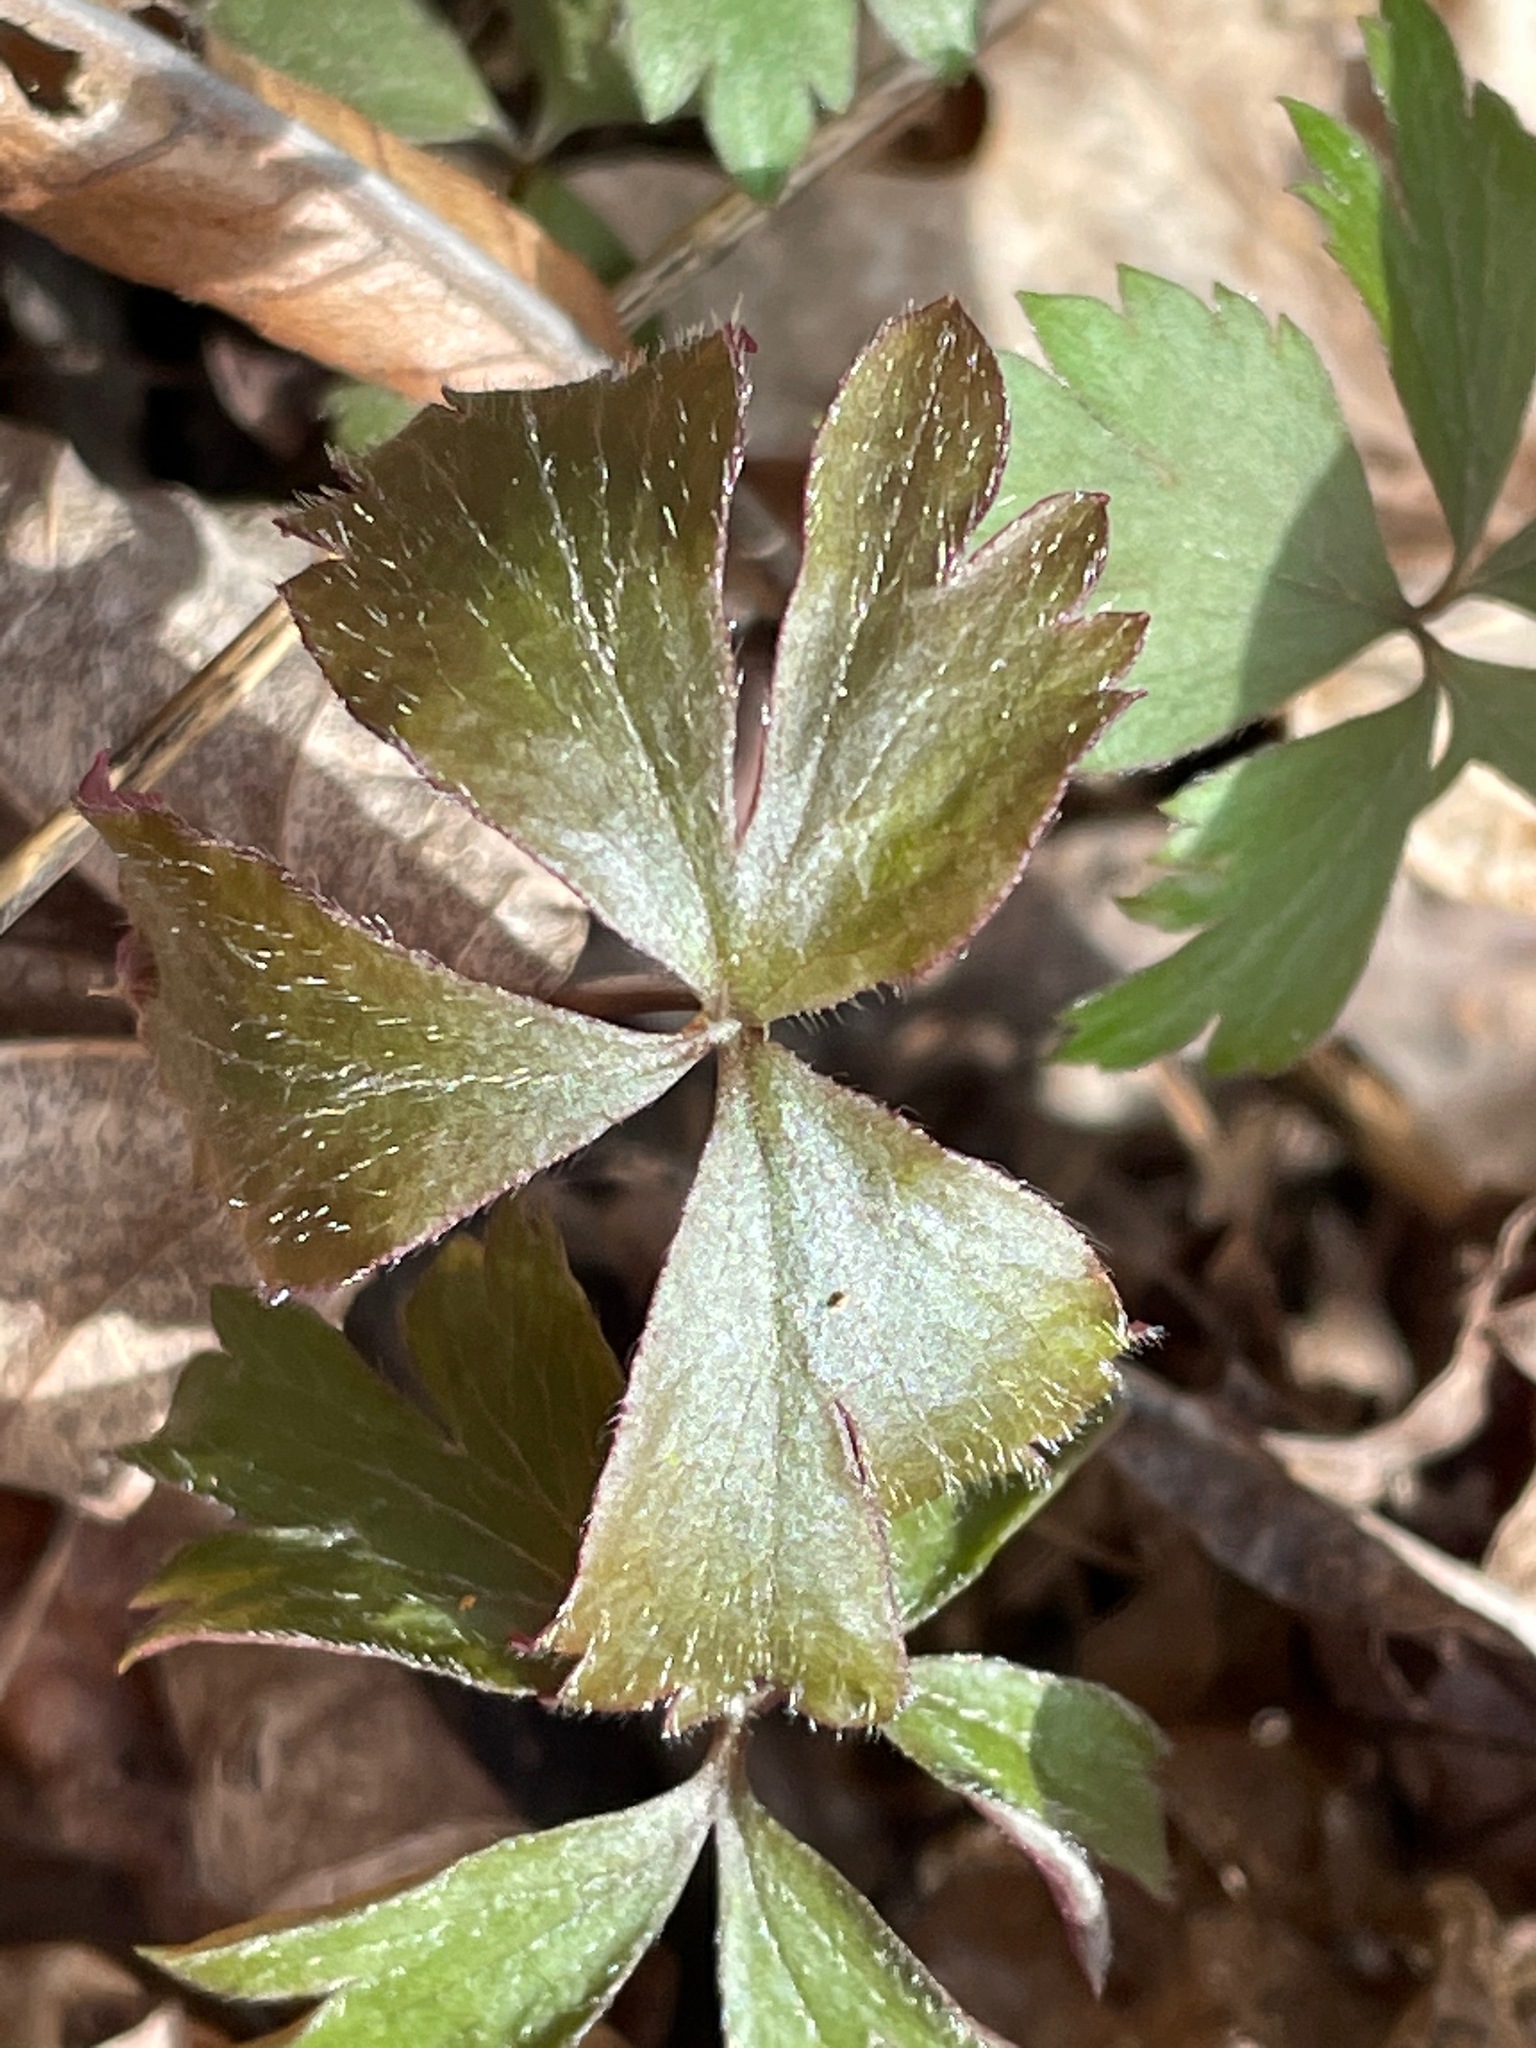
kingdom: Plantae
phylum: Tracheophyta
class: Magnoliopsida
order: Ranunculales
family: Ranunculaceae
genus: Anemone
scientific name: Anemone quinquefolia
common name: Wood anemone
